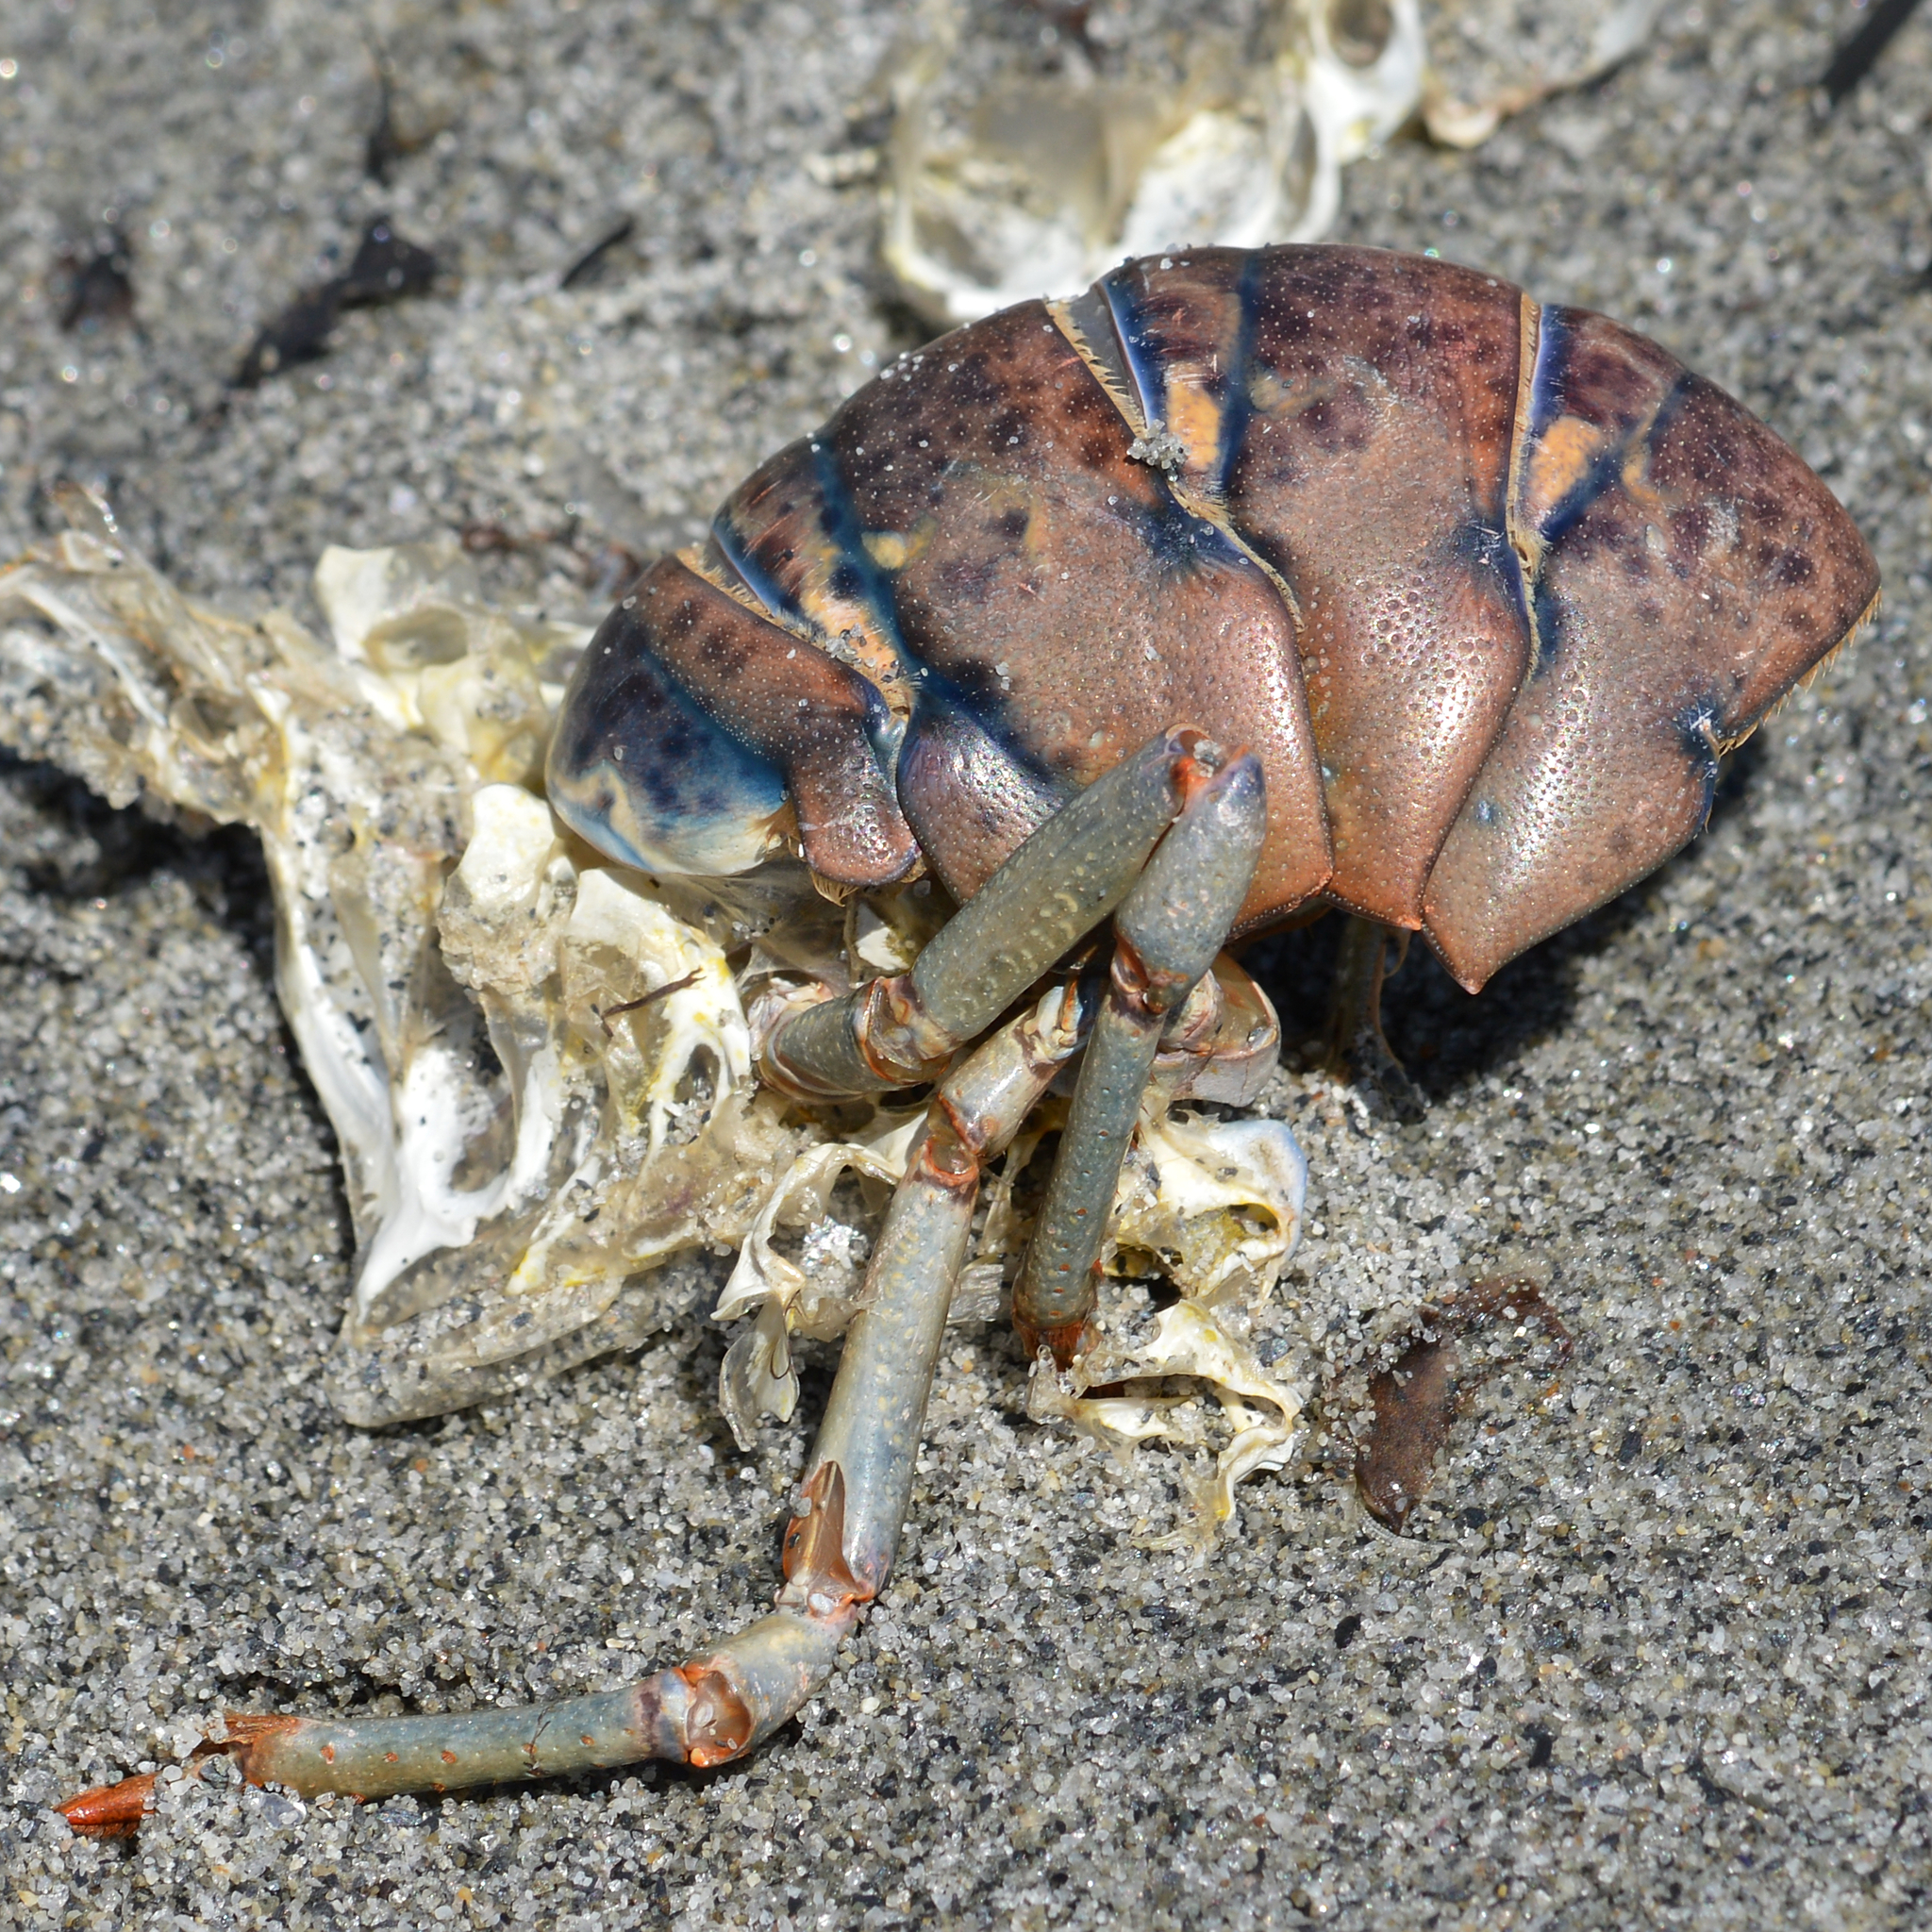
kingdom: Animalia
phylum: Arthropoda
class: Malacostraca
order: Decapoda
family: Nephropidae
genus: Homarus
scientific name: Homarus americanus
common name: American lobster
